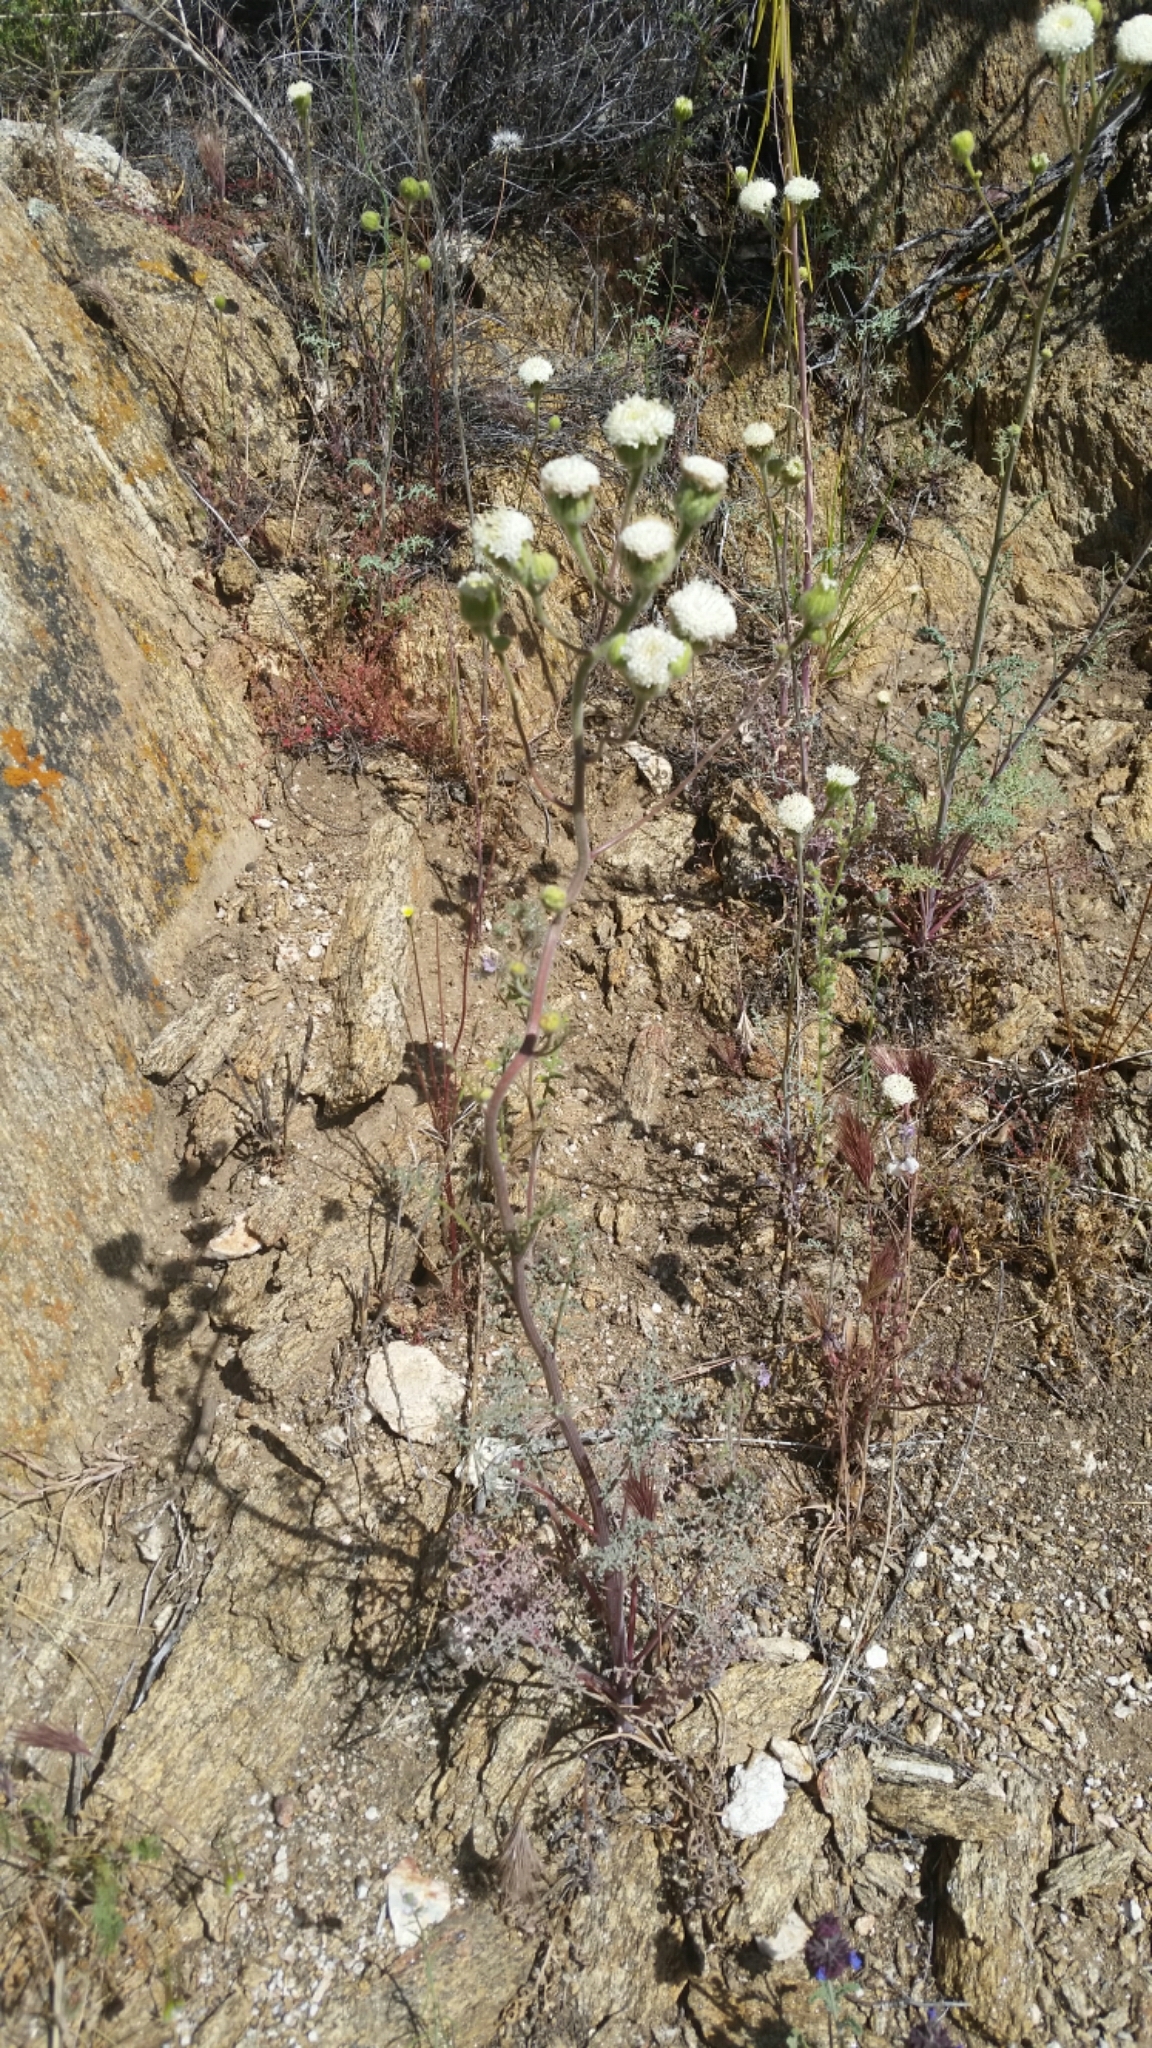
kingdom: Plantae
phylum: Tracheophyta
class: Magnoliopsida
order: Asterales
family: Asteraceae
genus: Chaenactis
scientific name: Chaenactis artemisiifolia
